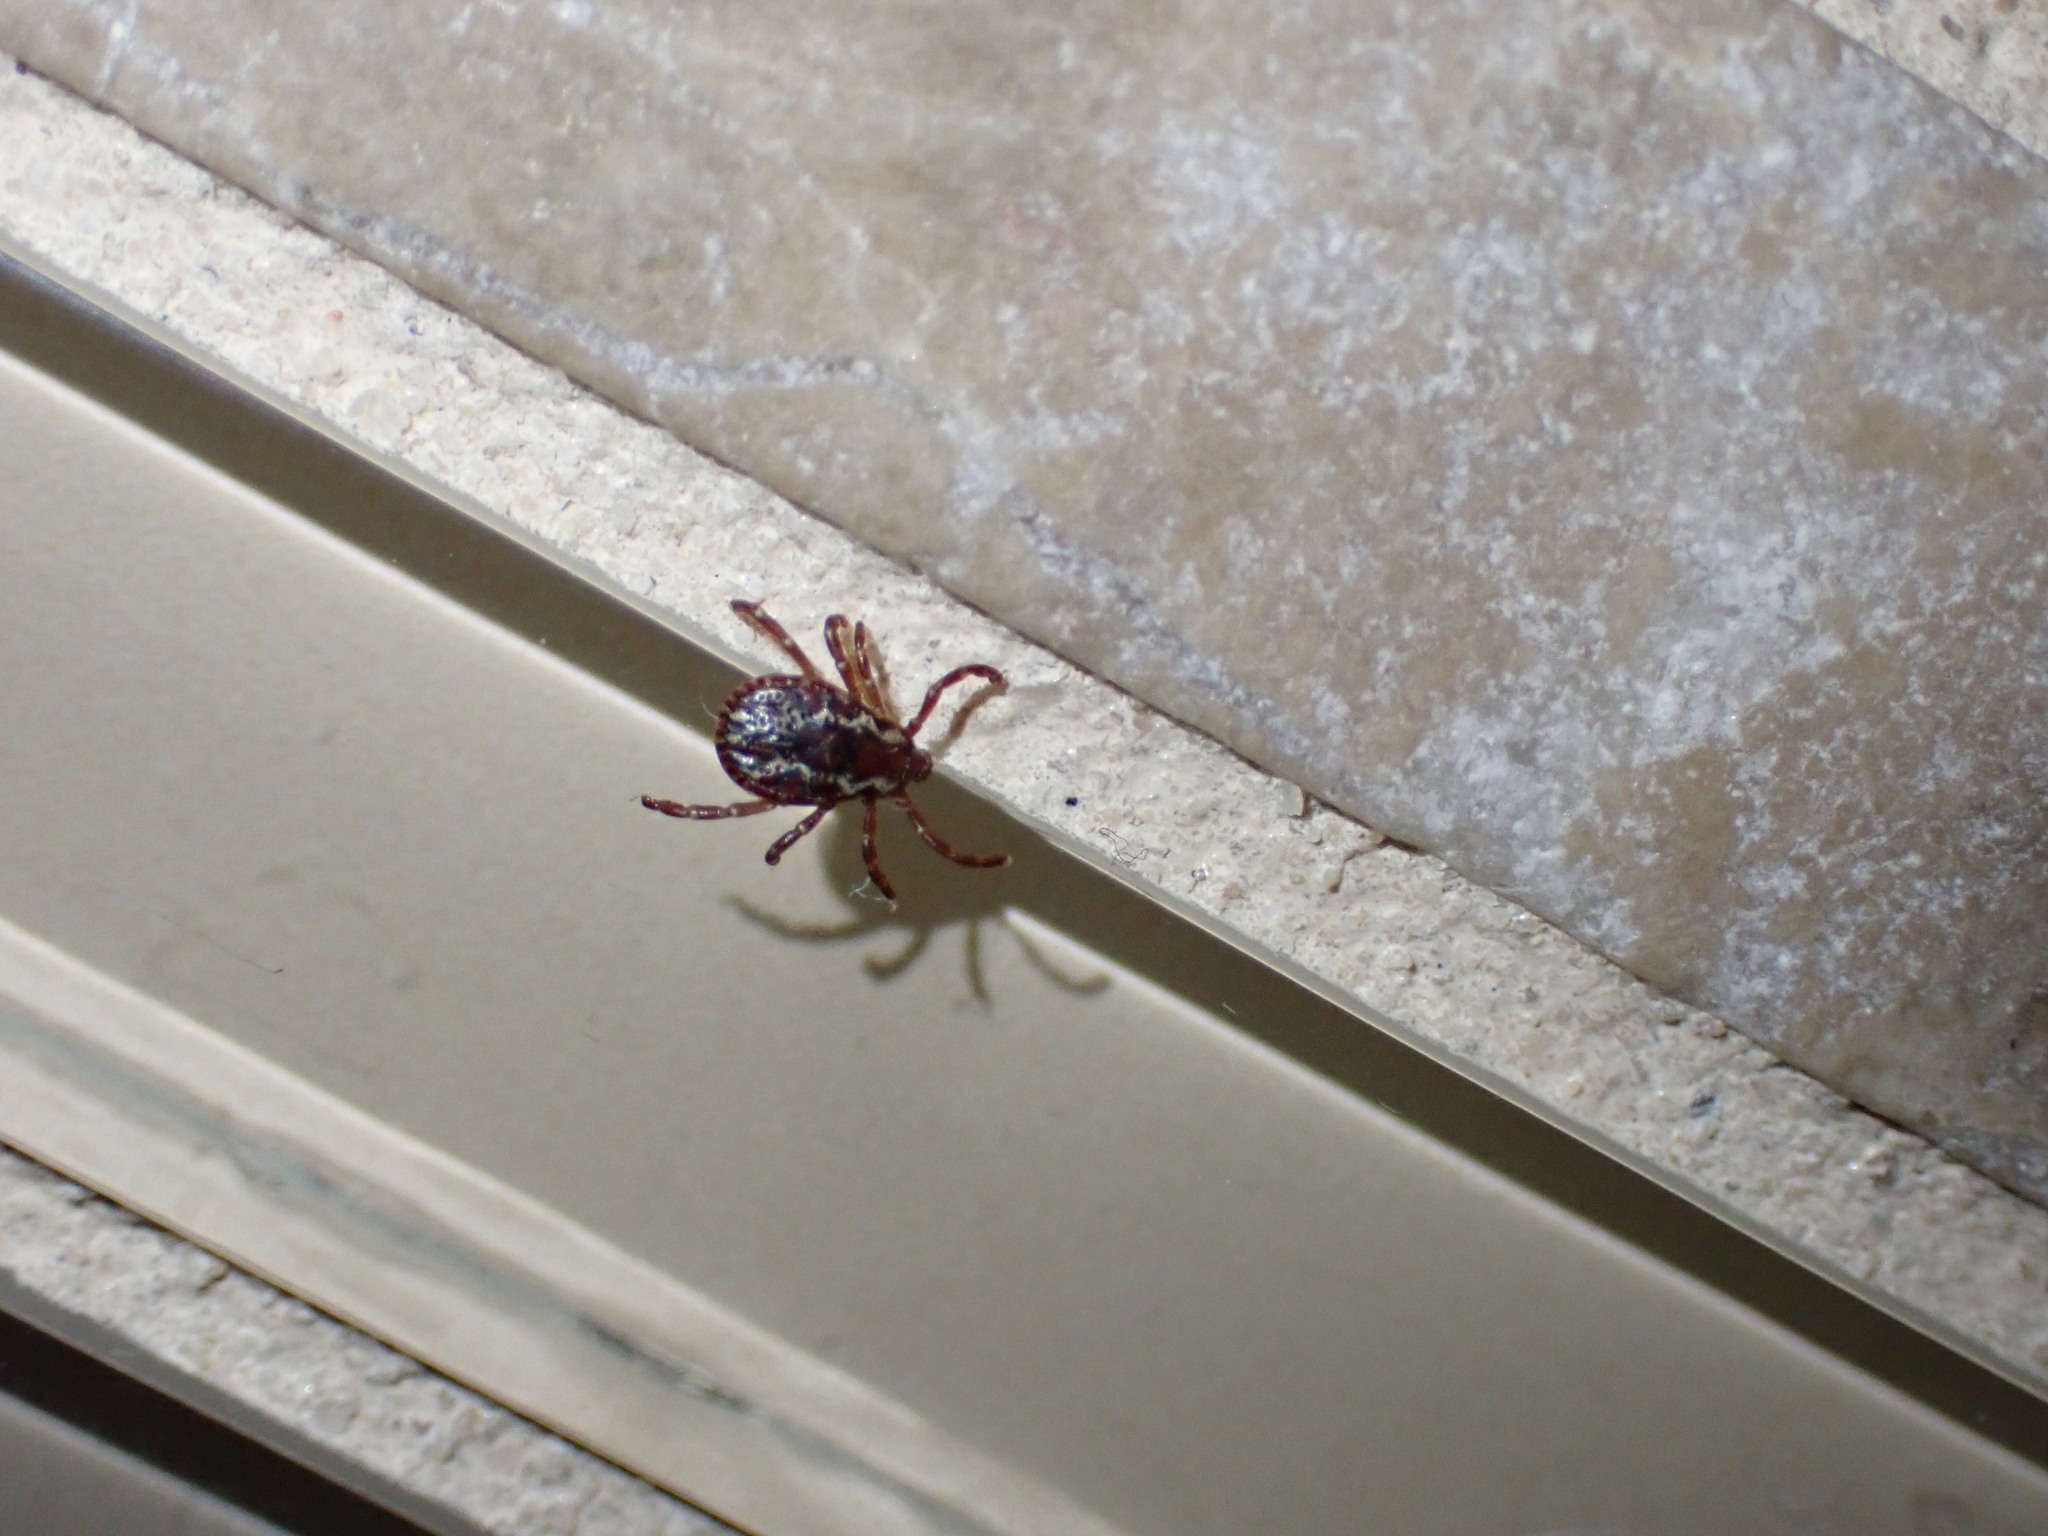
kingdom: Animalia
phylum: Arthropoda
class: Arachnida
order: Ixodida
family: Ixodidae
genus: Dermacentor
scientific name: Dermacentor variabilis
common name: American dog tick
